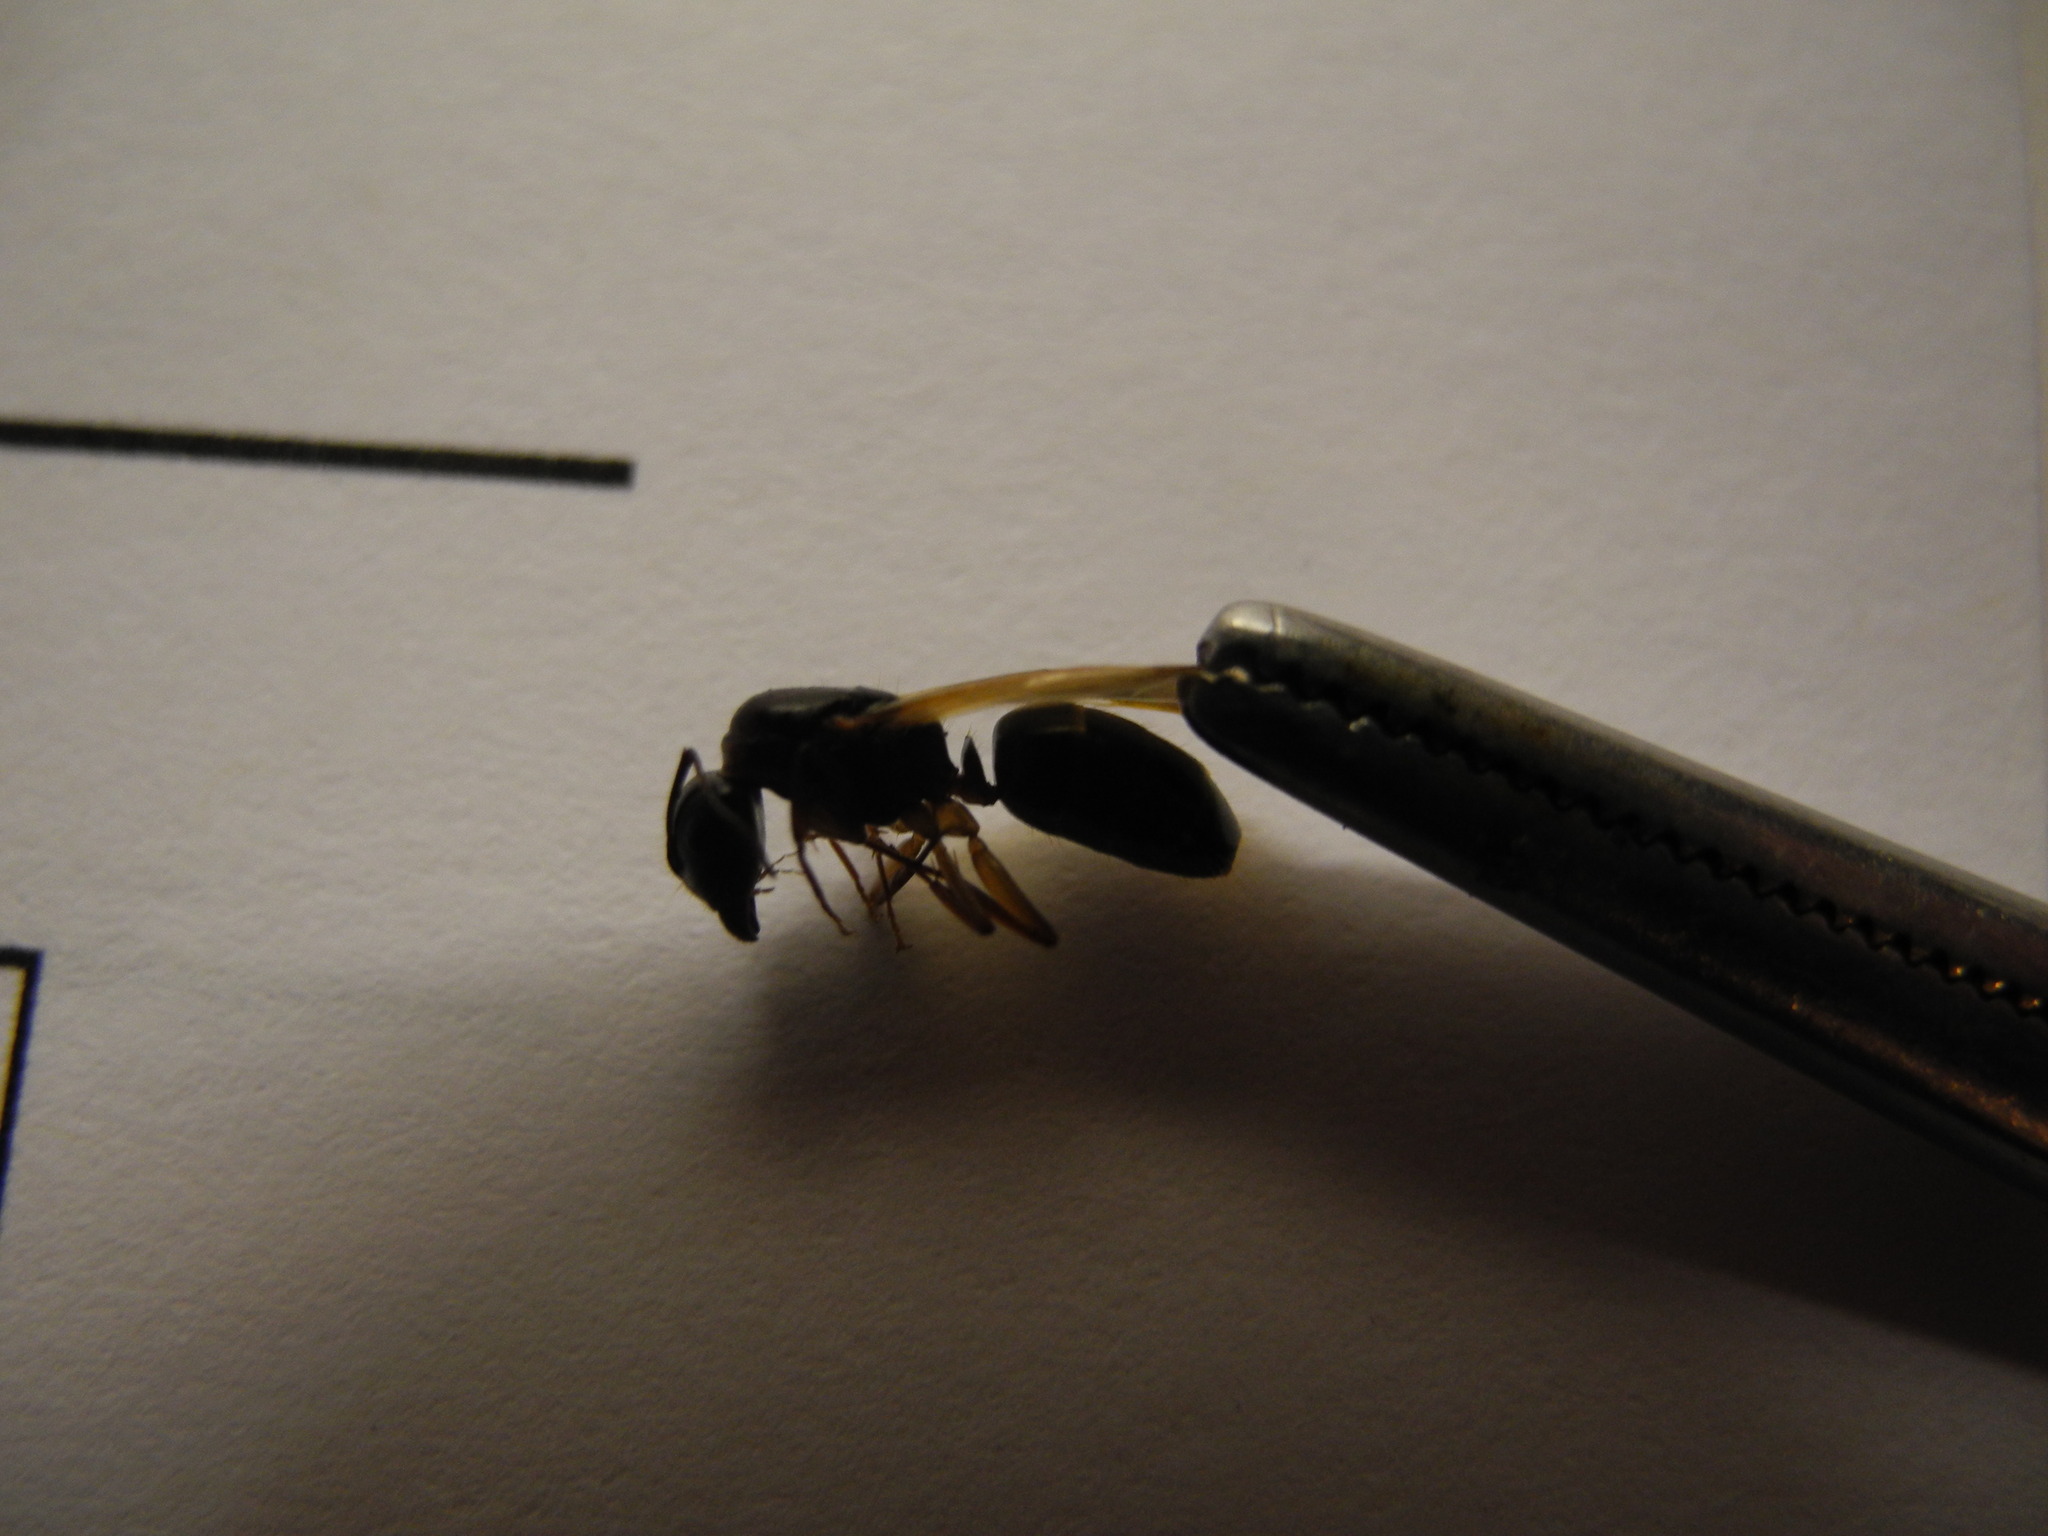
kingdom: Animalia
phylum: Arthropoda
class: Insecta
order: Hymenoptera
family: Formicidae
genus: Camponotus
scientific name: Camponotus laevigatus
